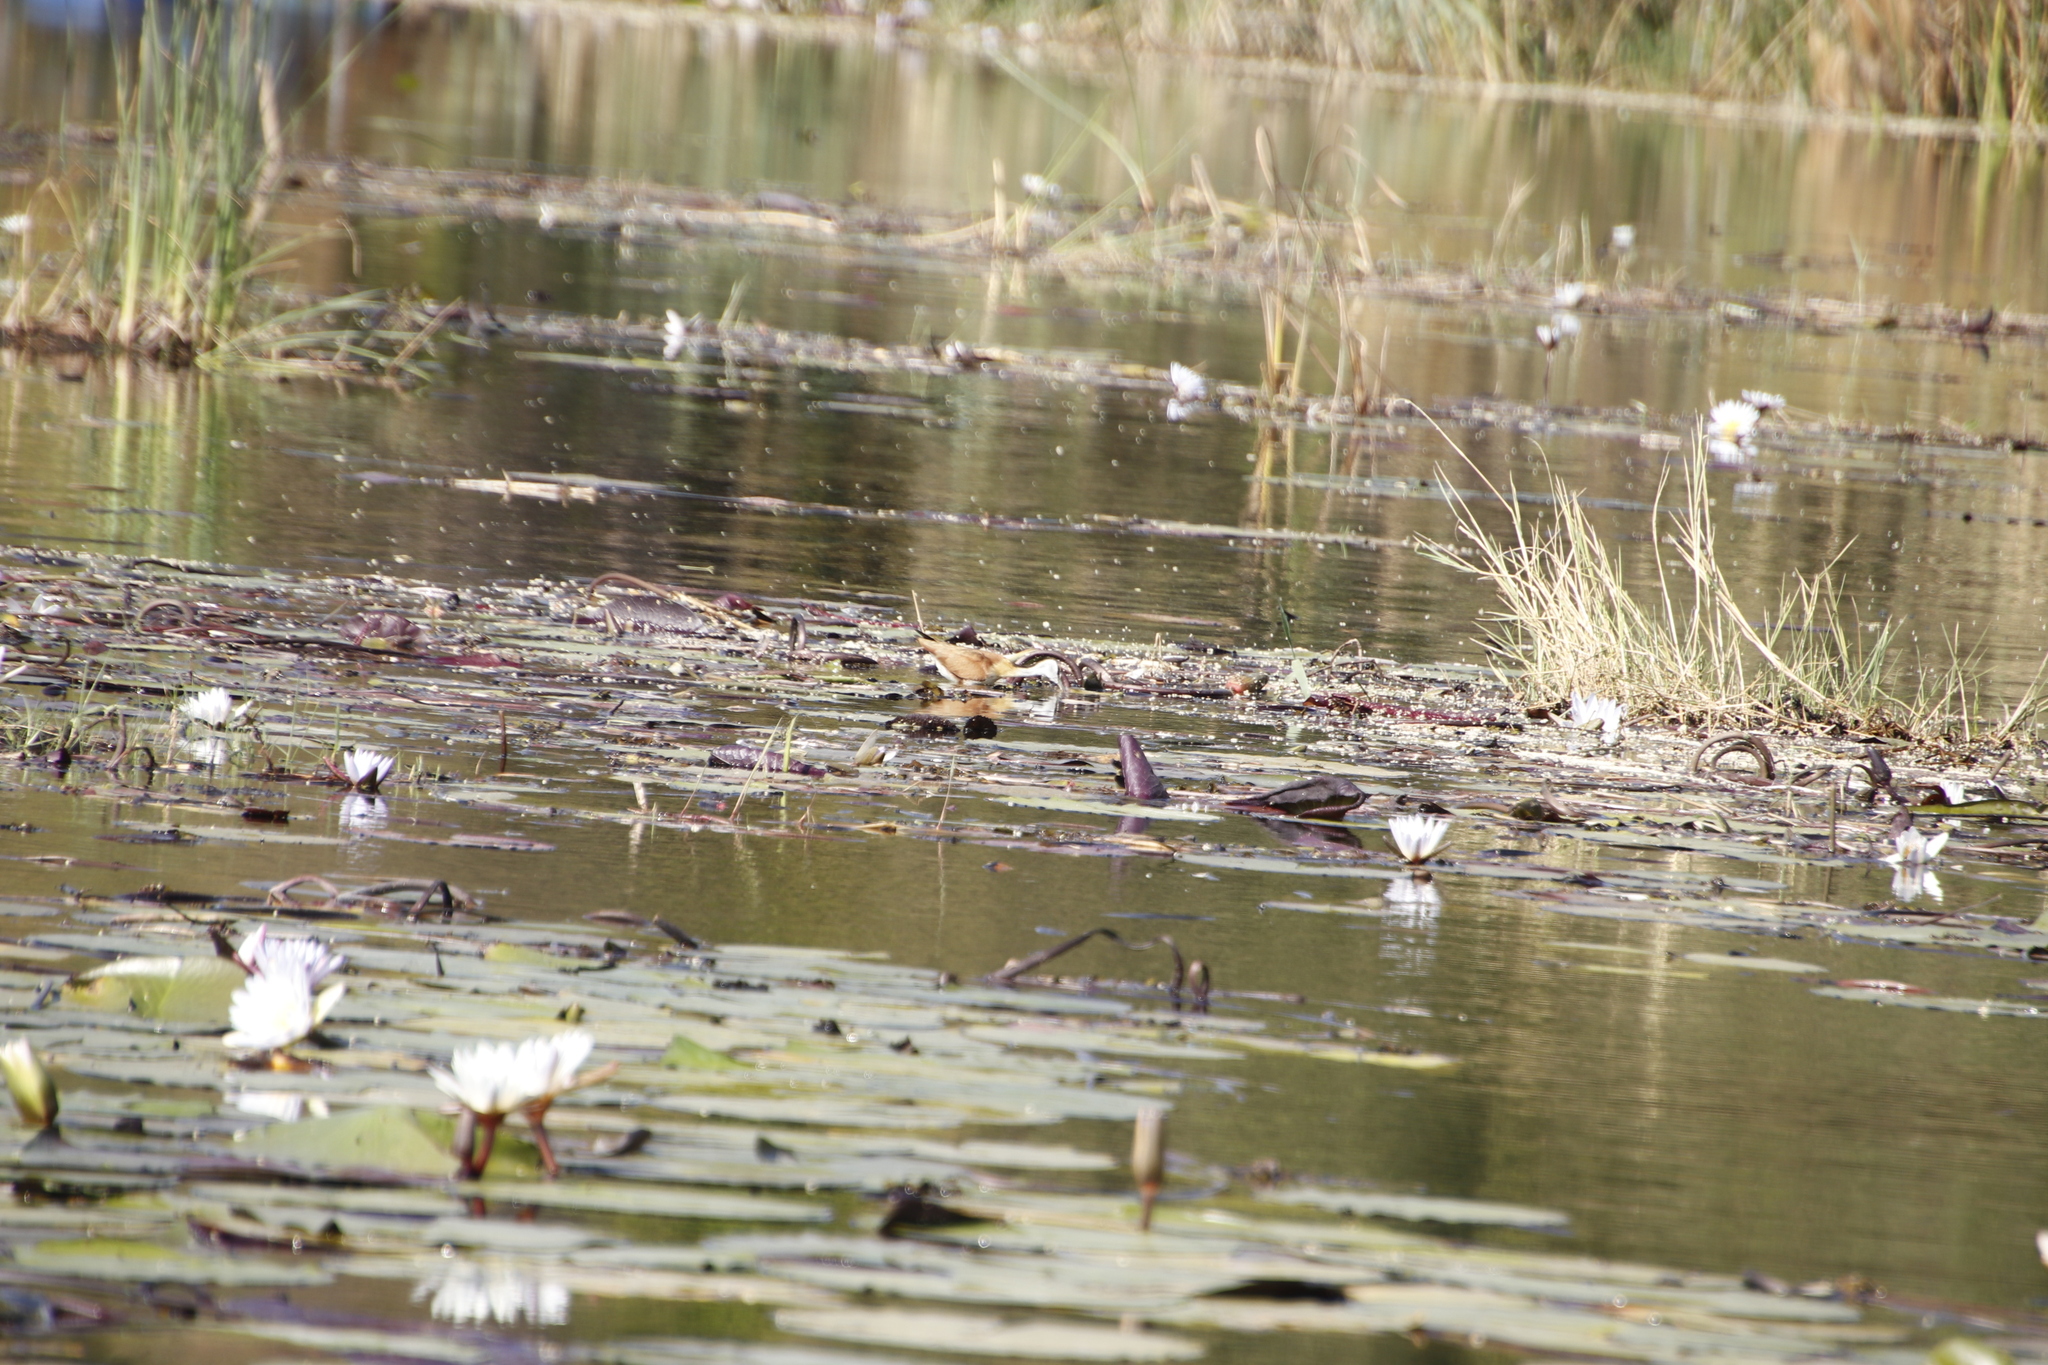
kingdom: Animalia
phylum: Chordata
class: Aves
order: Charadriiformes
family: Jacanidae
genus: Actophilornis
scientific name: Actophilornis africanus
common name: African jacana
